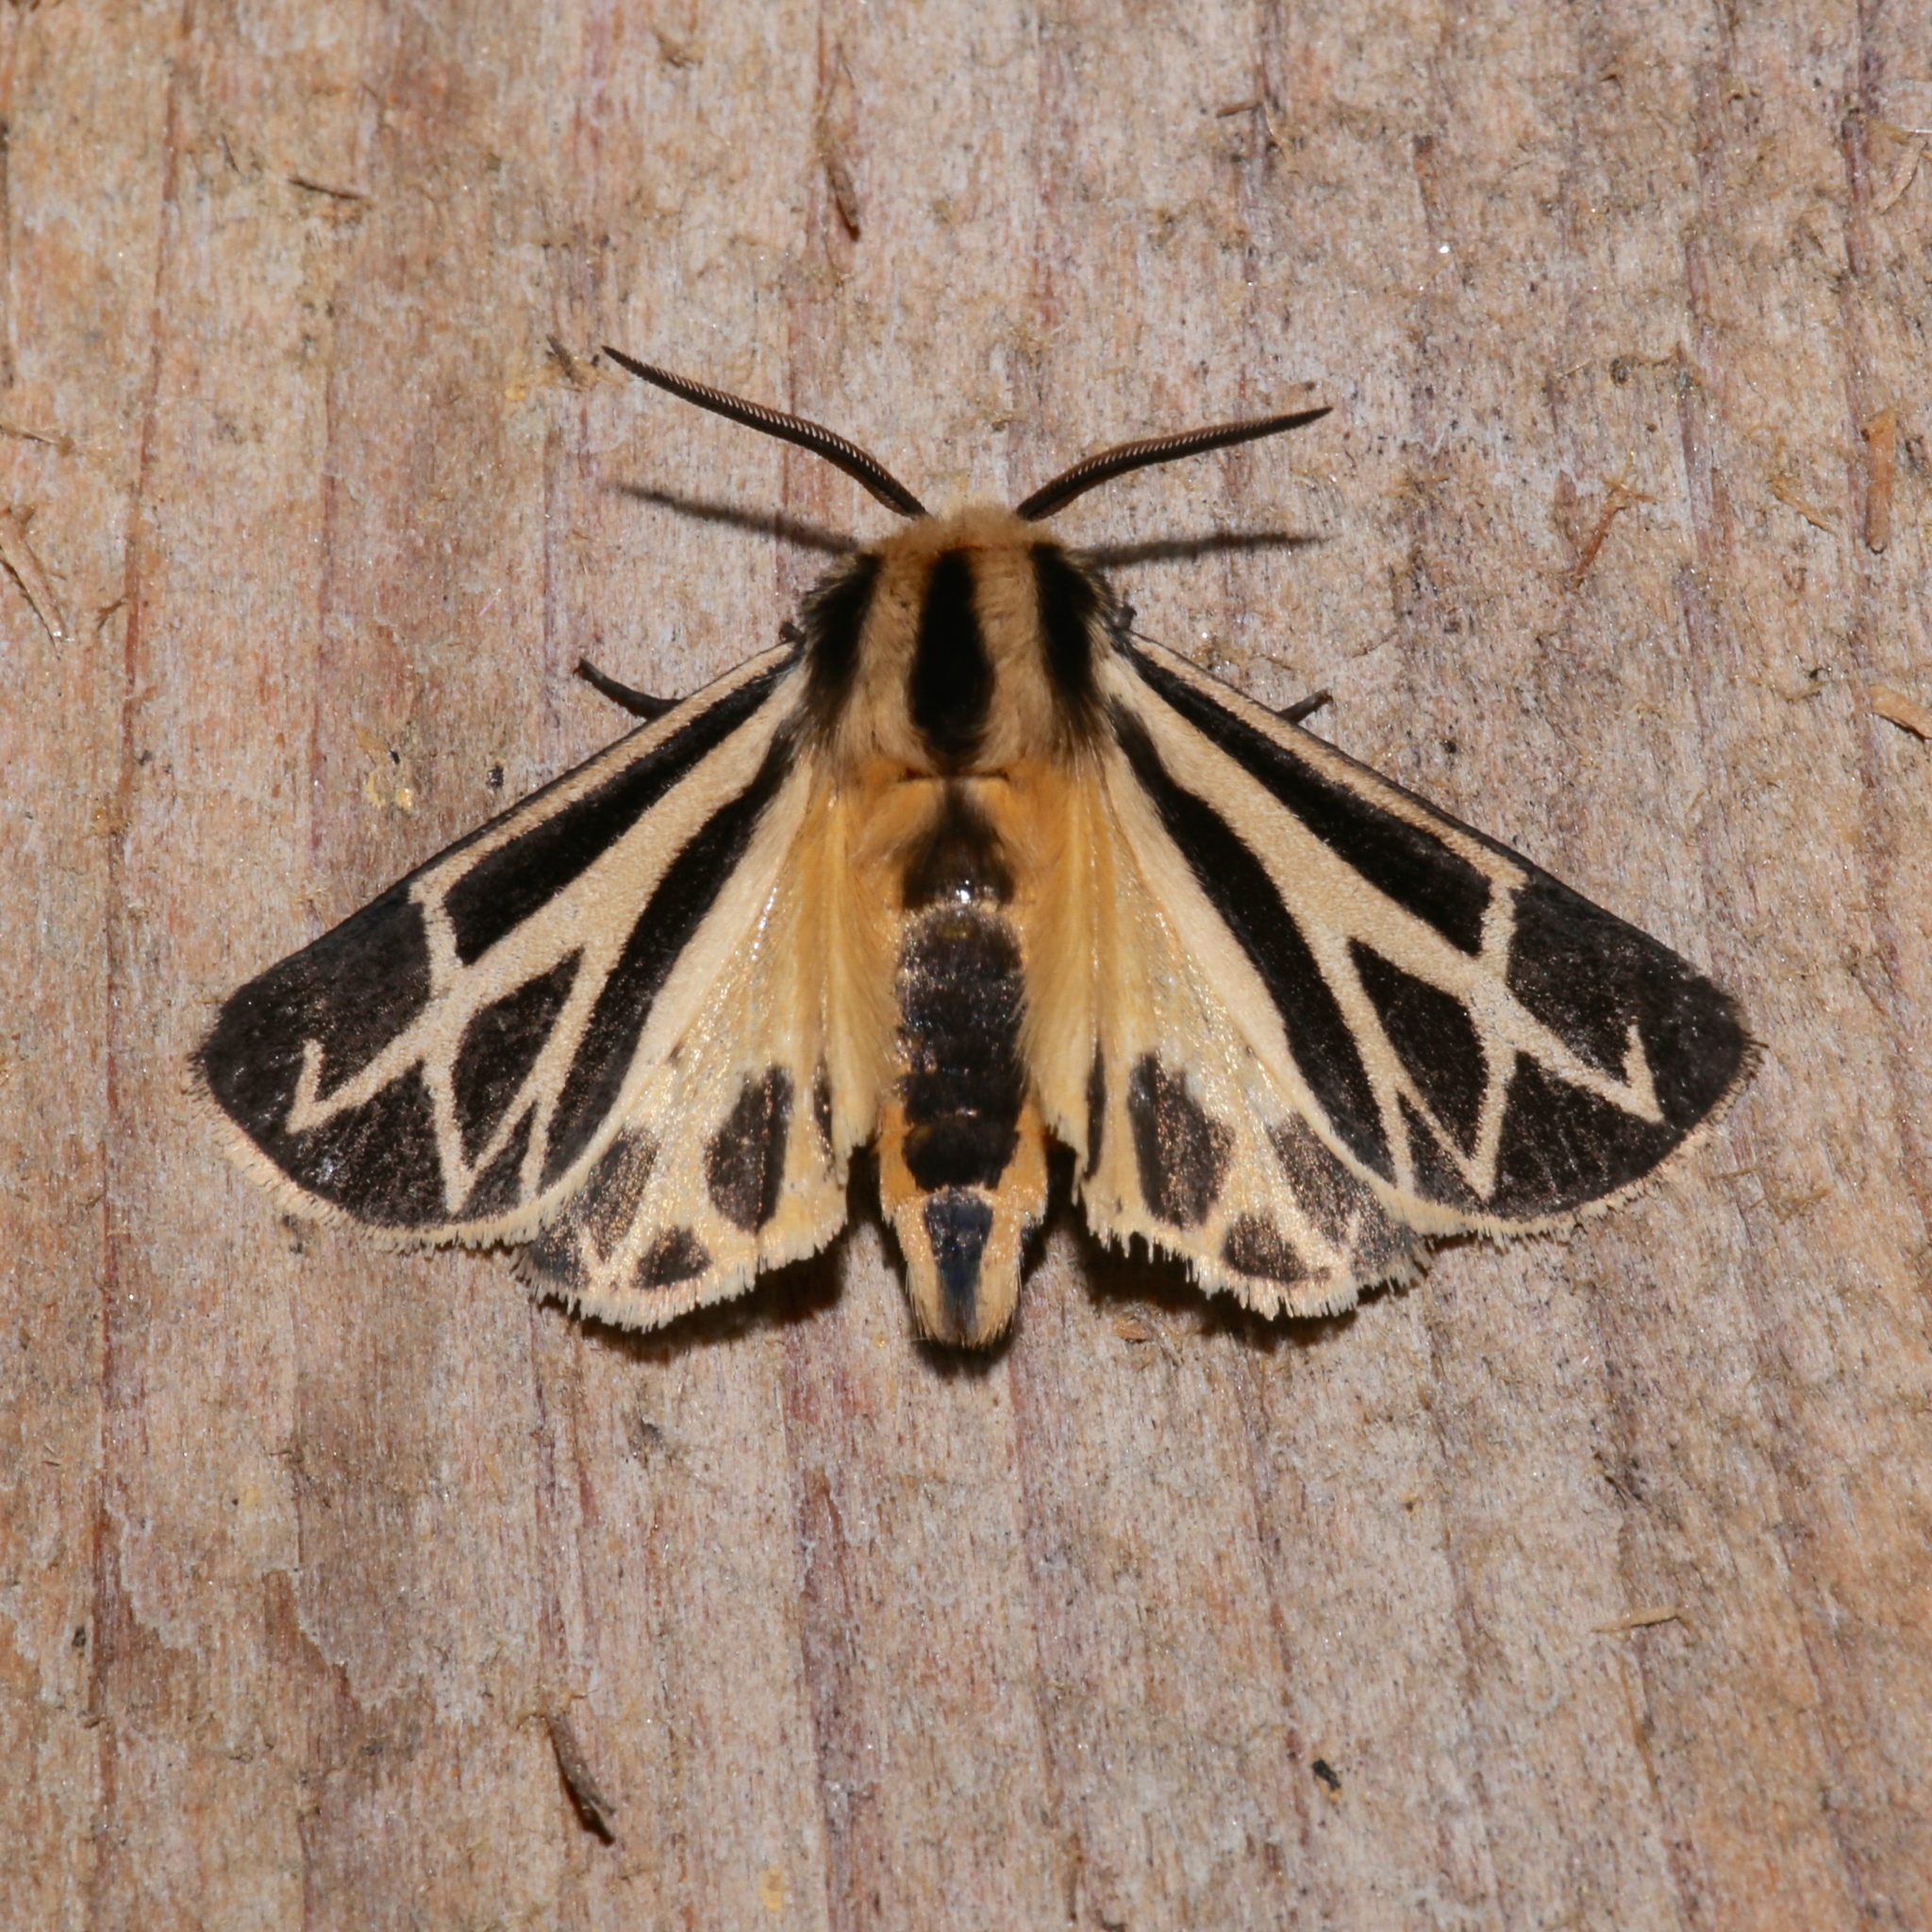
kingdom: Animalia
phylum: Arthropoda
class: Insecta
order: Lepidoptera
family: Erebidae
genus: Apantesis
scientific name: Apantesis carlotta
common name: Carlotta's tiger moth
